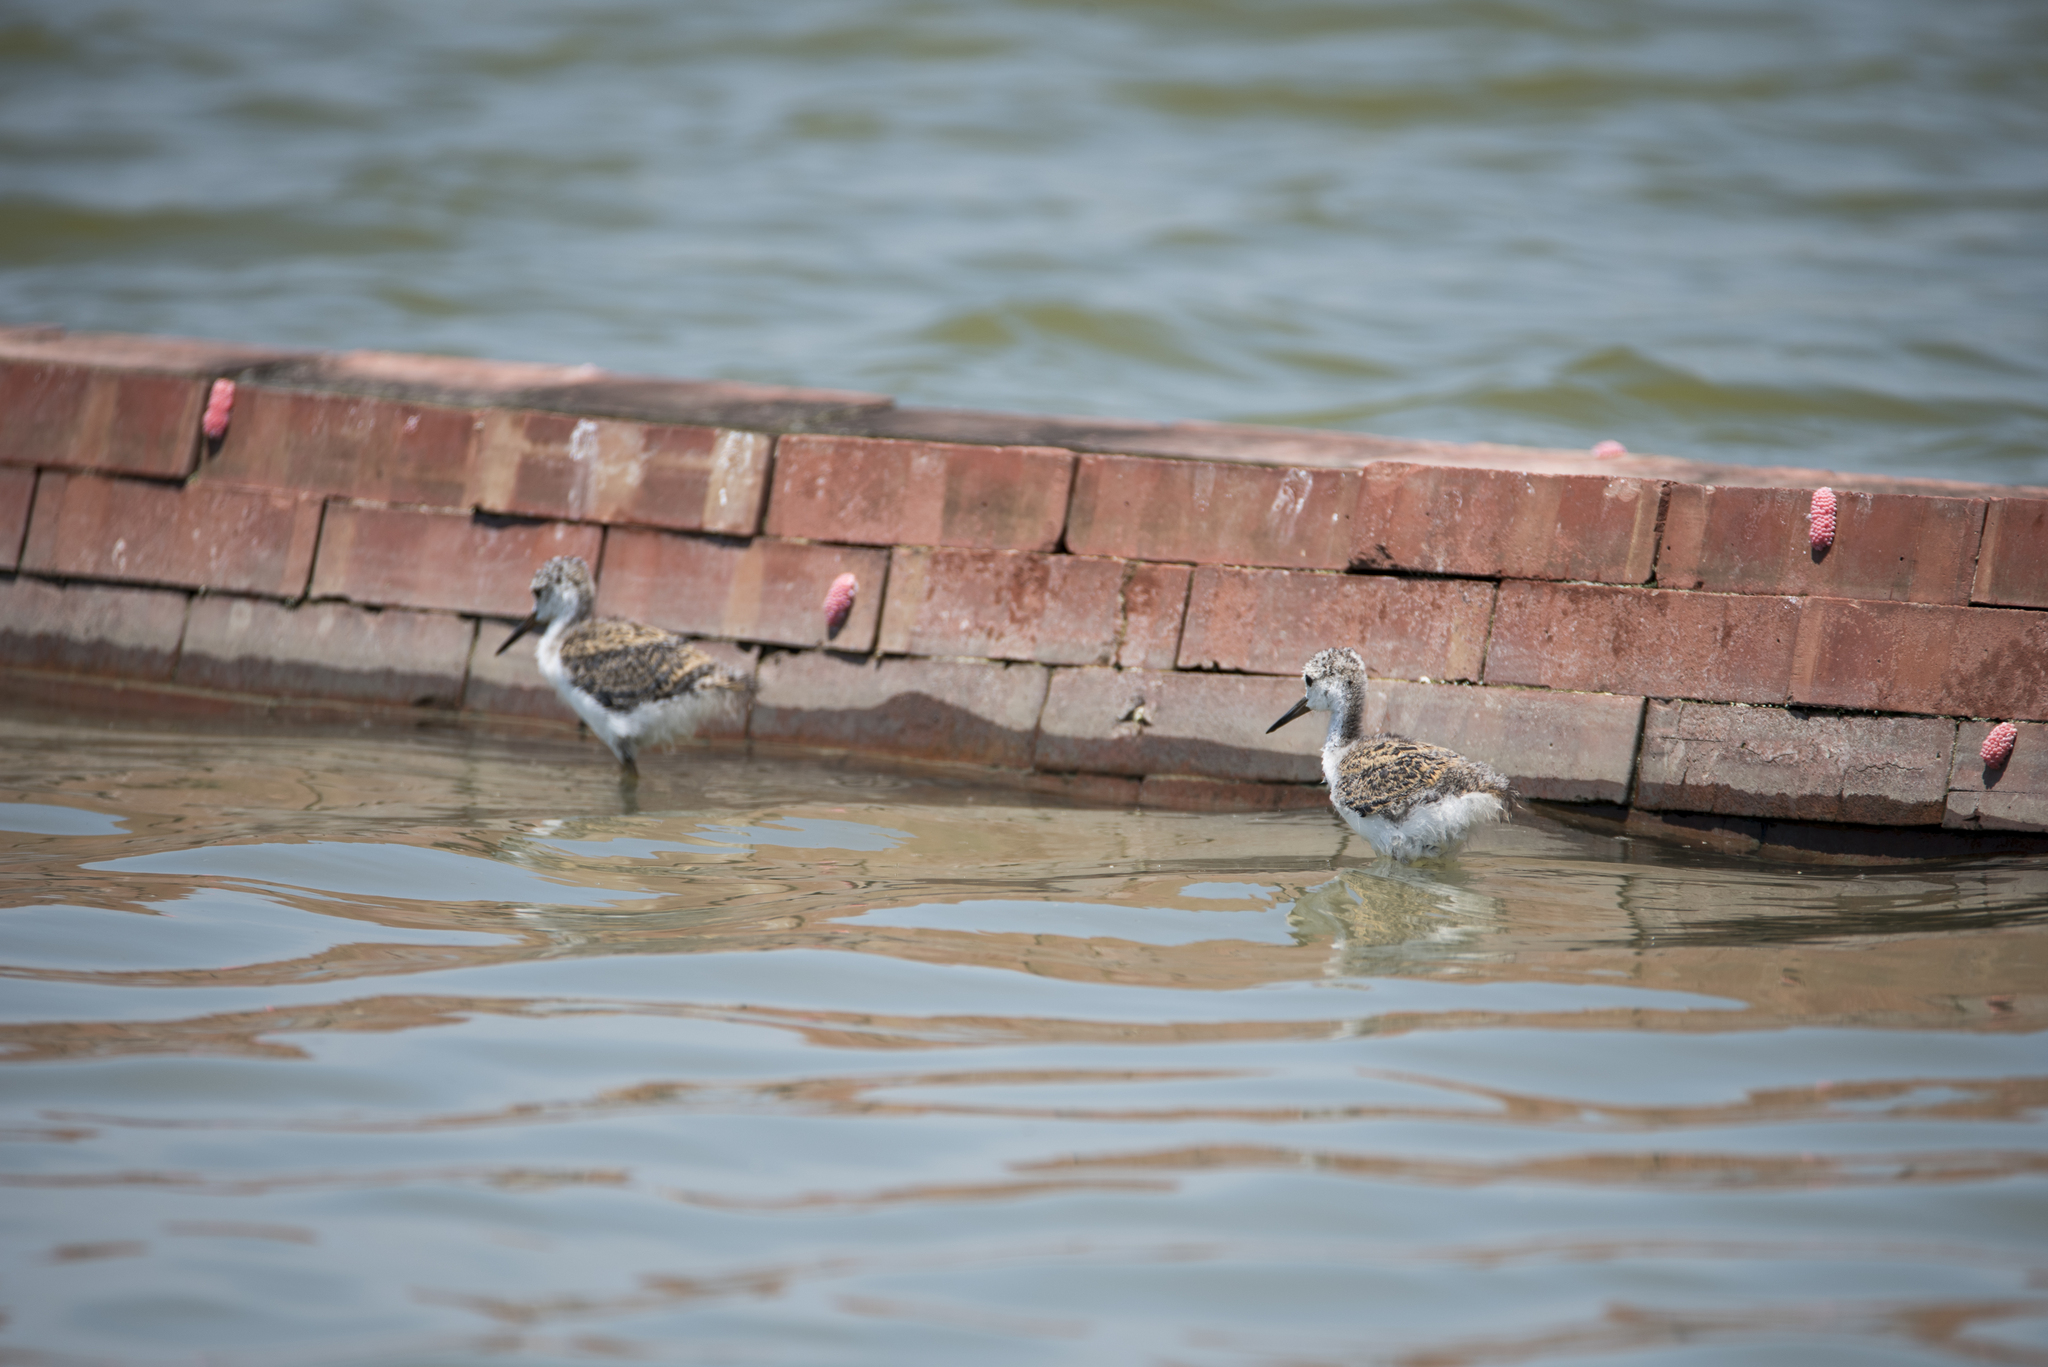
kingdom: Animalia
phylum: Chordata
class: Aves
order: Charadriiformes
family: Recurvirostridae
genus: Himantopus
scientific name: Himantopus himantopus
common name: Black-winged stilt
